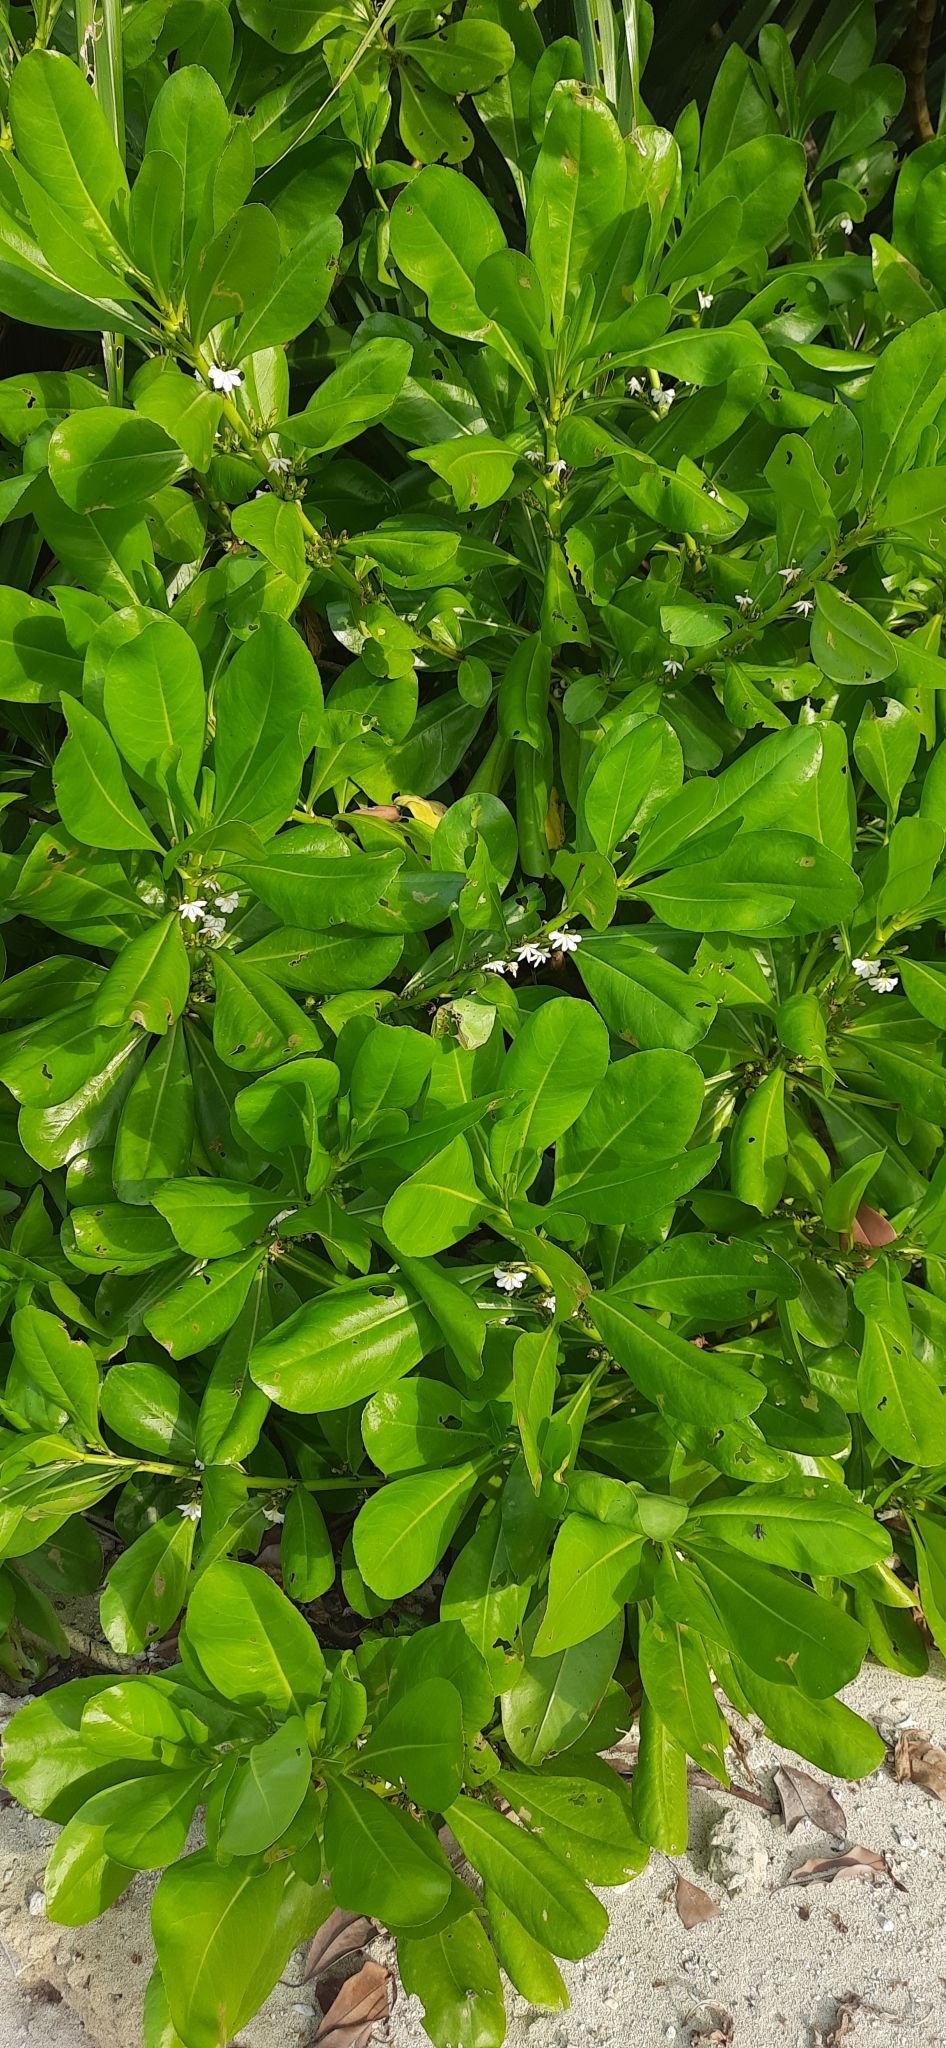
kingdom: Plantae
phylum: Tracheophyta
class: Magnoliopsida
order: Asterales
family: Goodeniaceae
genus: Scaevola
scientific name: Scaevola taccada
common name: Sea lettucetree
